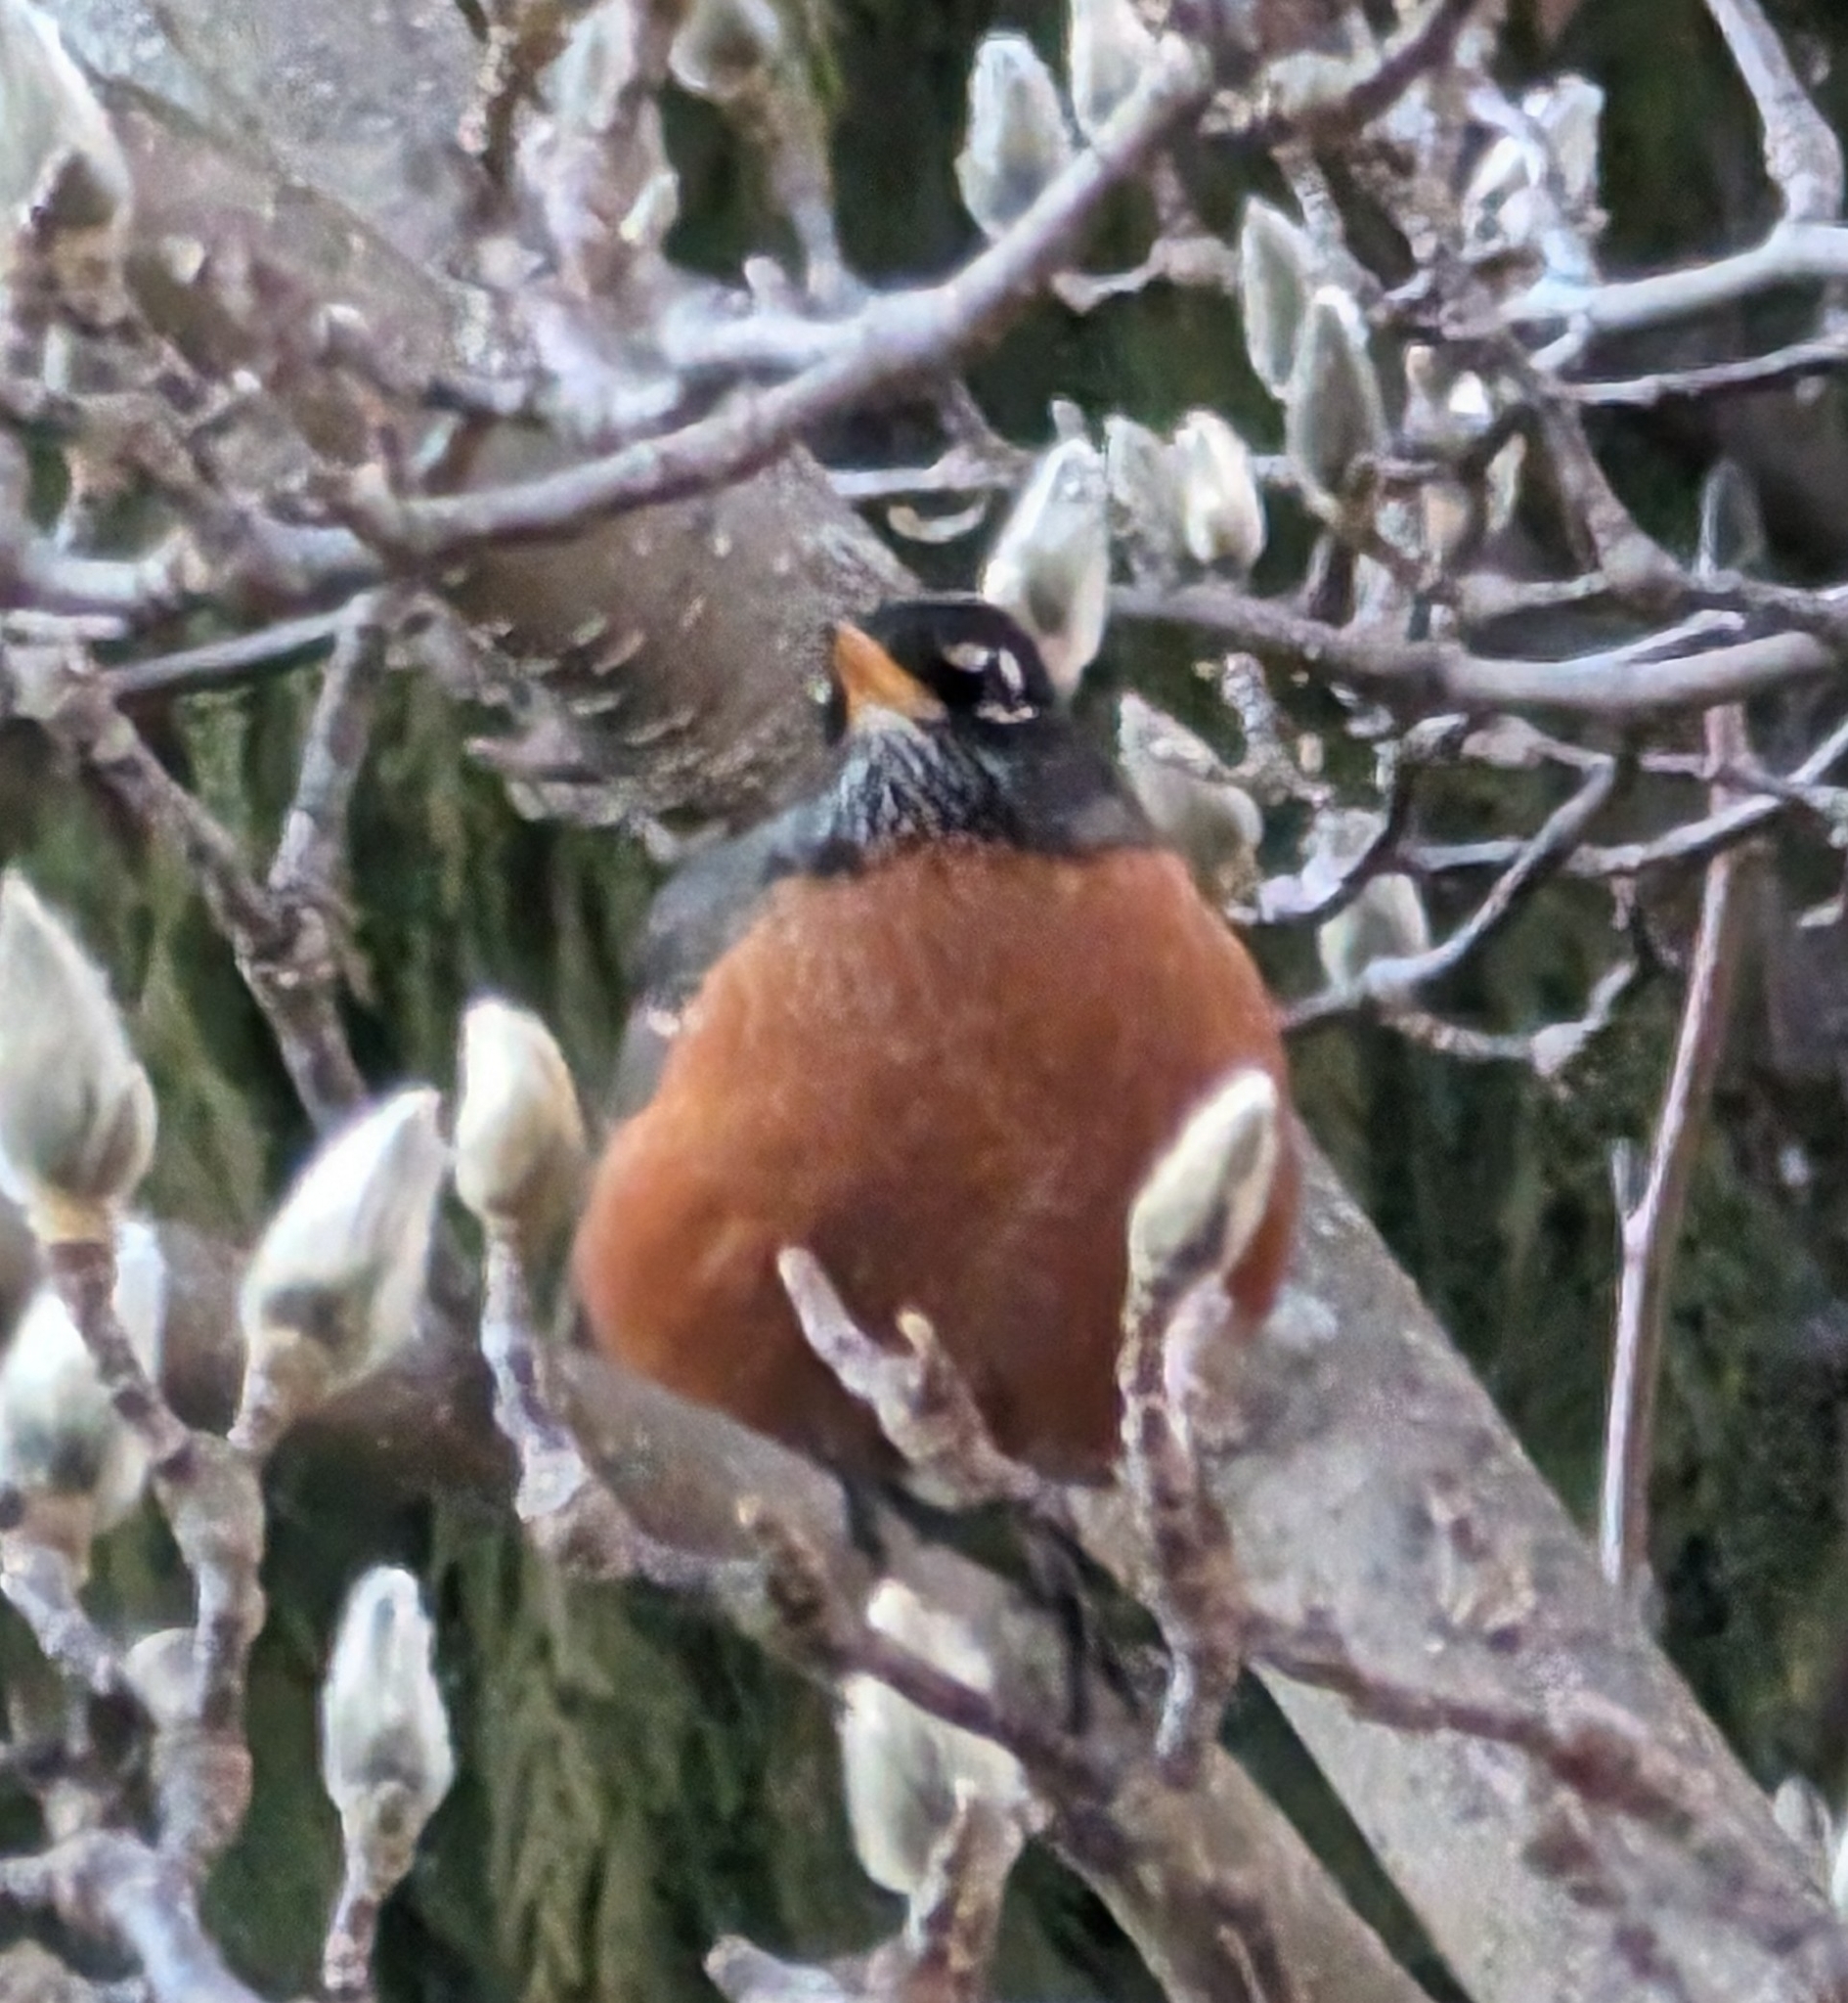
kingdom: Animalia
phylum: Chordata
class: Aves
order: Passeriformes
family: Turdidae
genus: Turdus
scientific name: Turdus migratorius
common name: American robin
